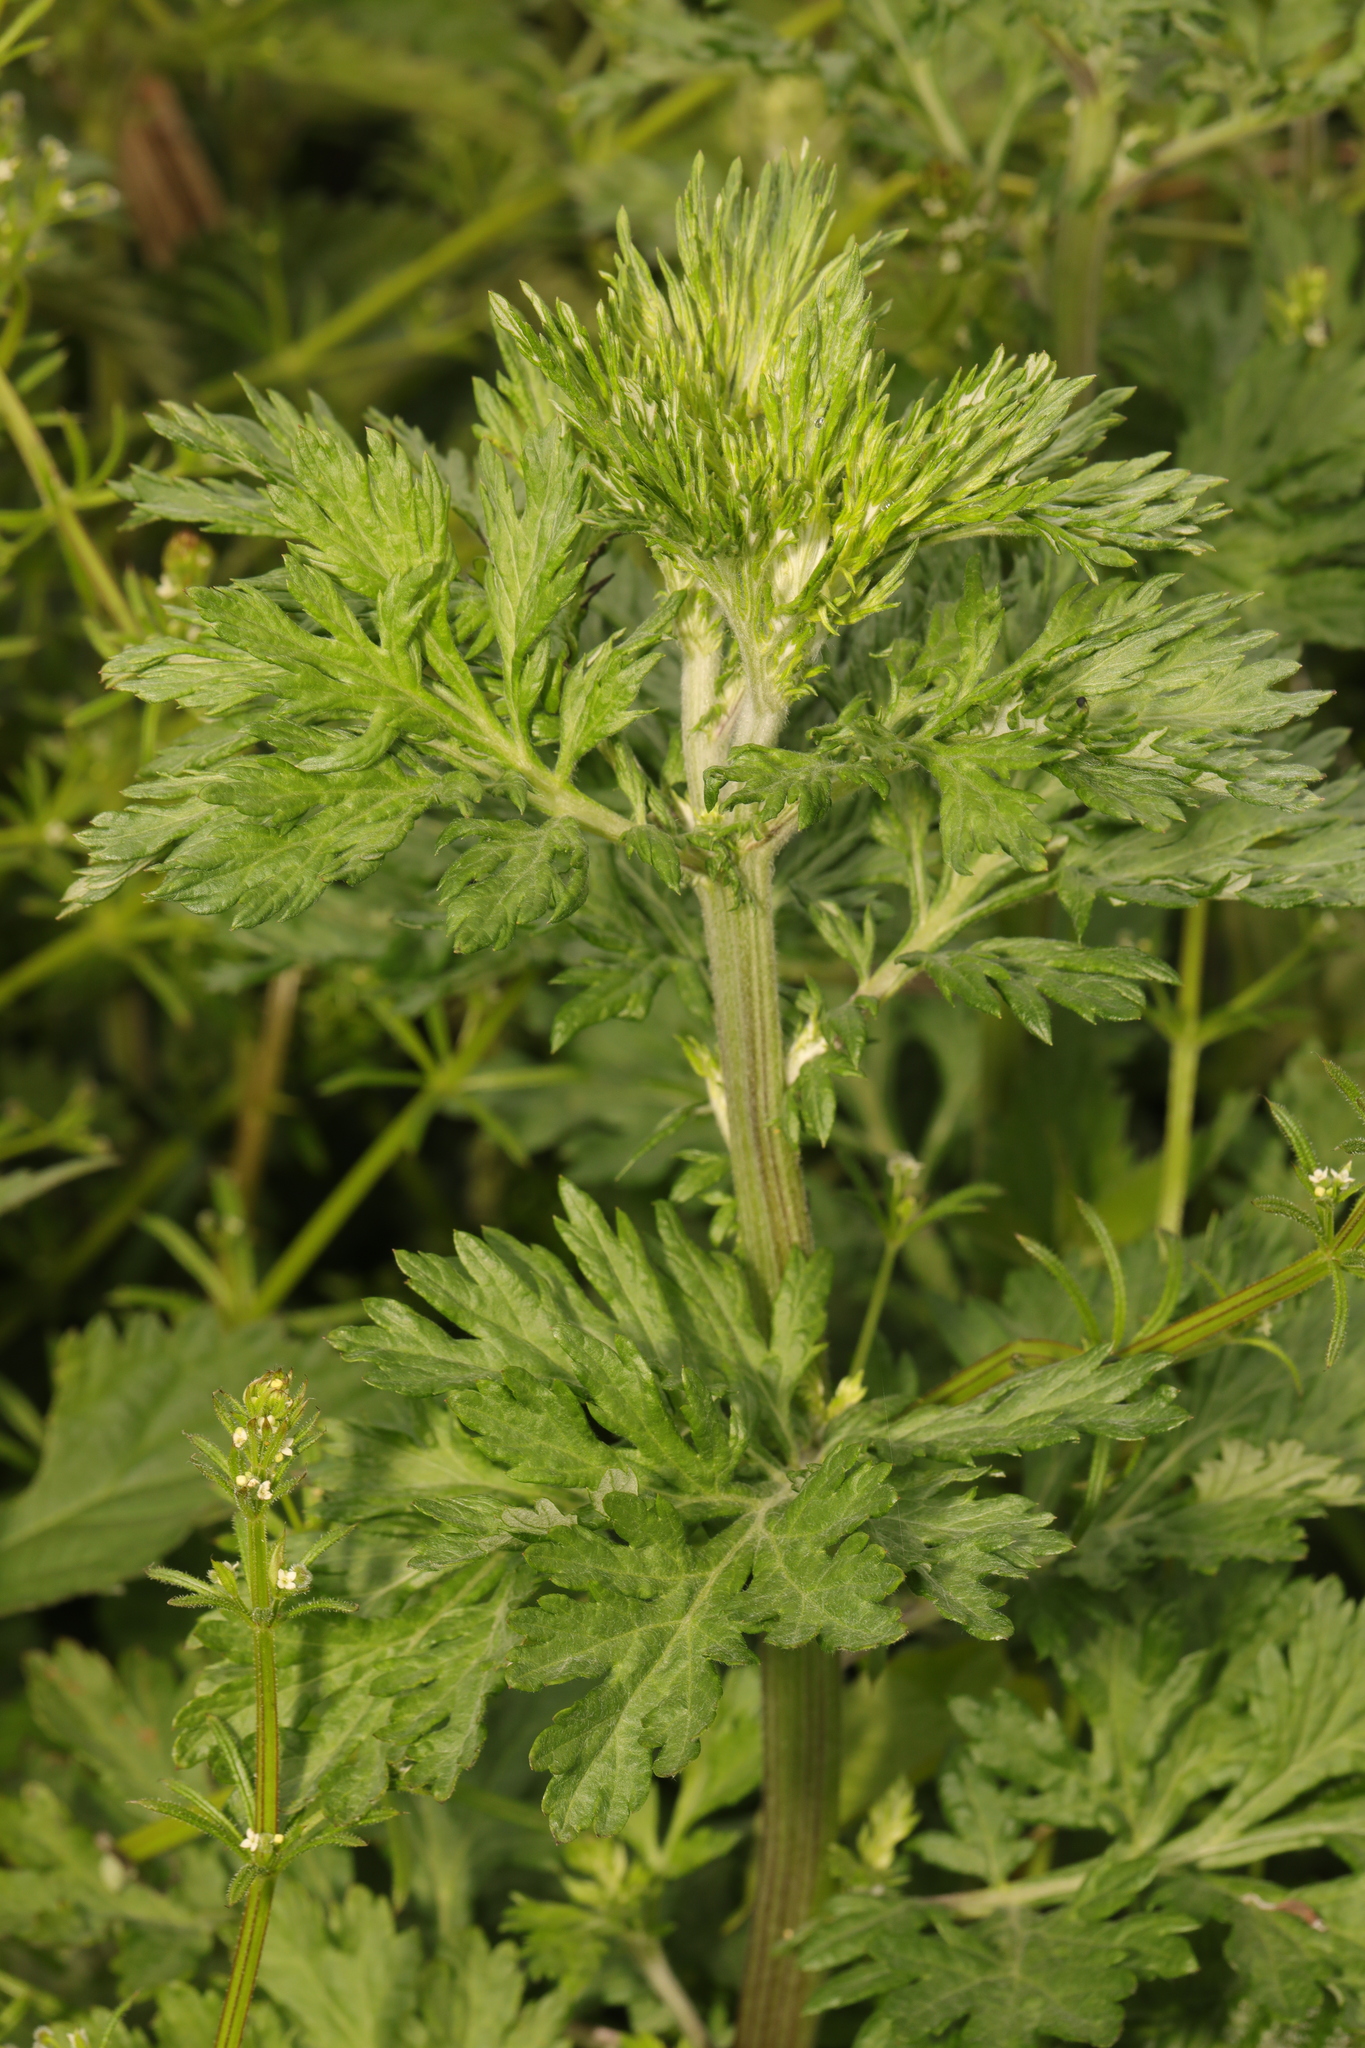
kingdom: Plantae
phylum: Tracheophyta
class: Magnoliopsida
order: Asterales
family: Asteraceae
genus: Artemisia
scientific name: Artemisia vulgaris
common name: Mugwort
